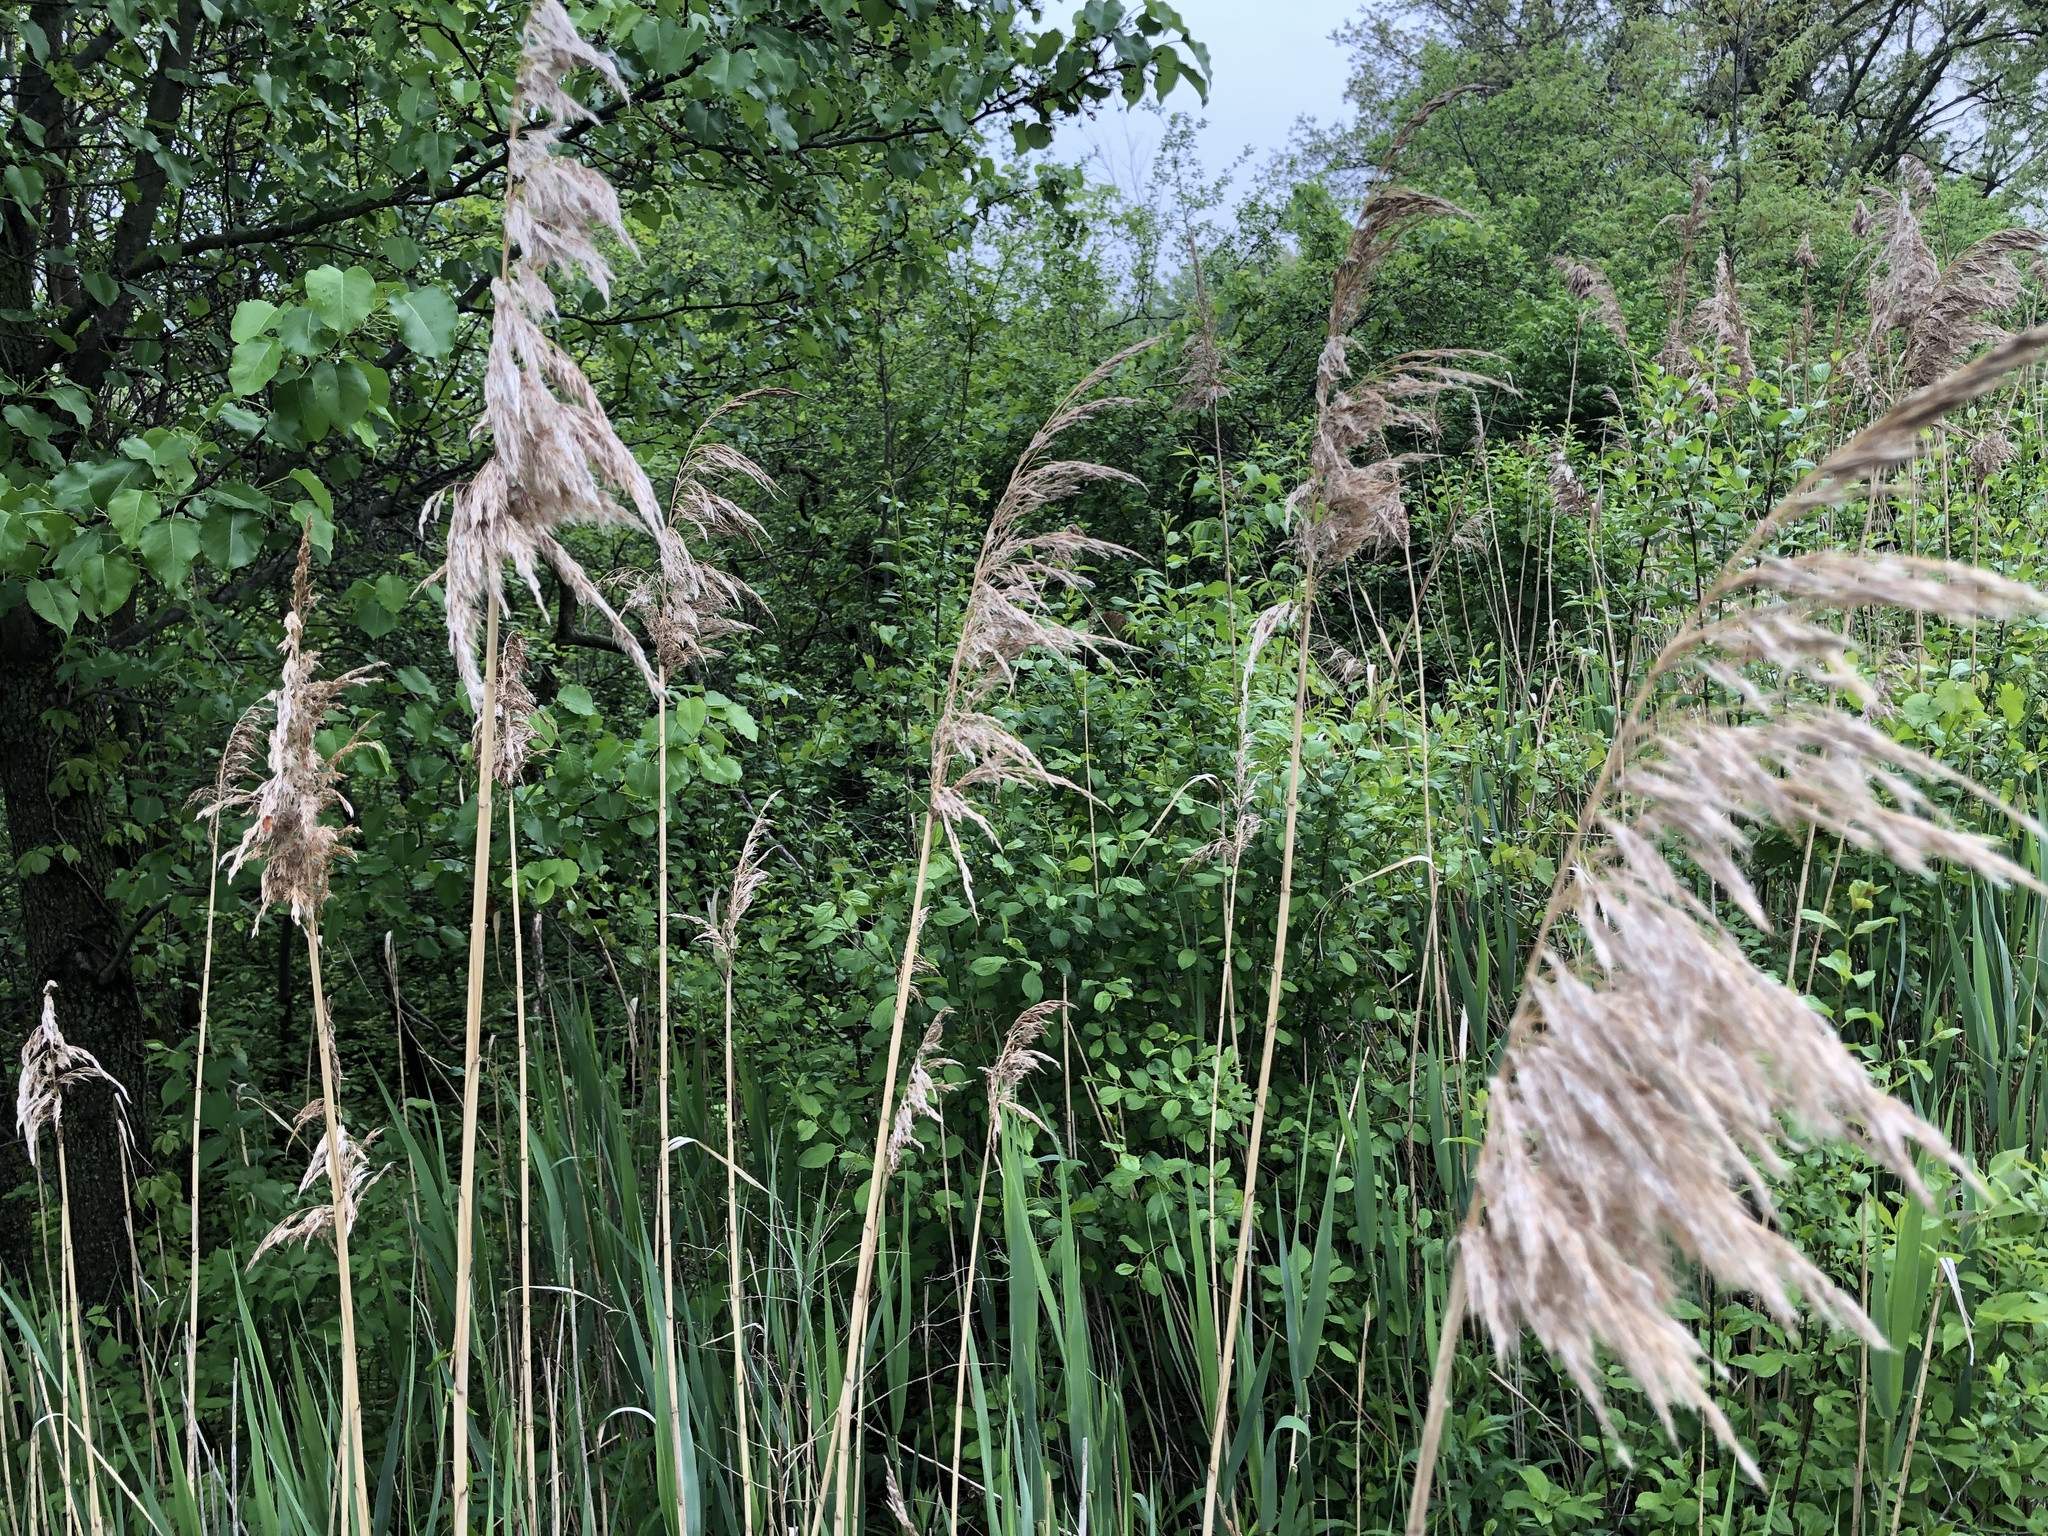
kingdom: Plantae
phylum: Tracheophyta
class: Liliopsida
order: Poales
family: Poaceae
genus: Phragmites
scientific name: Phragmites australis
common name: Common reed
